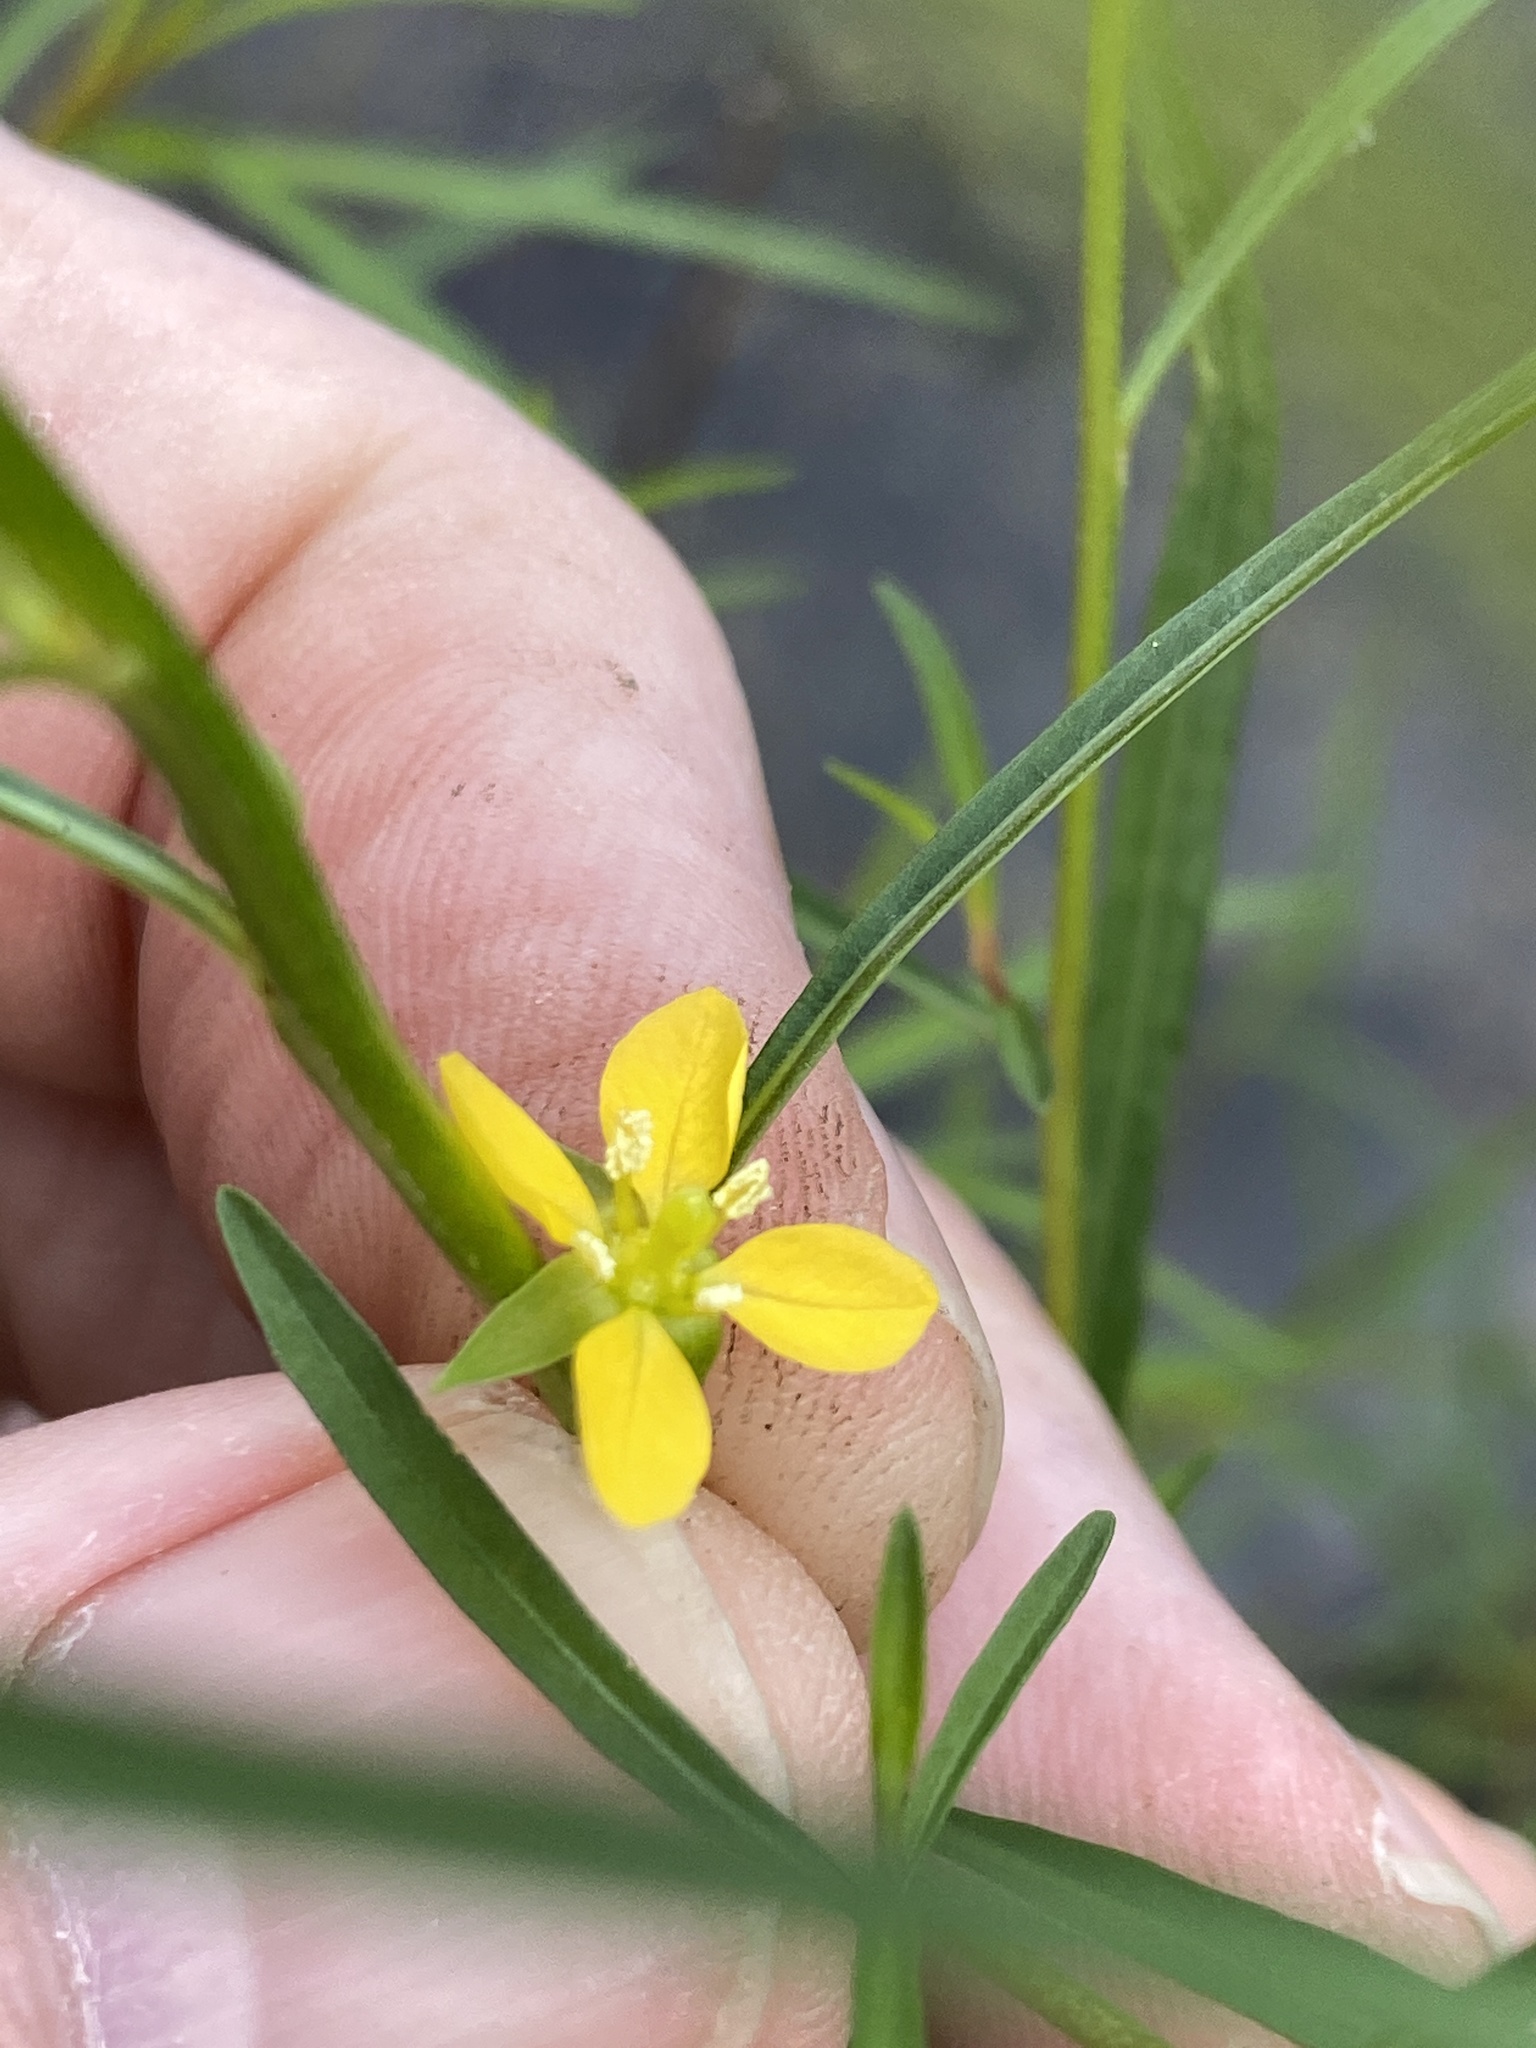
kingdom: Plantae
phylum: Tracheophyta
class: Magnoliopsida
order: Myrtales
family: Onagraceae
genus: Ludwigia
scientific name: Ludwigia linearis
